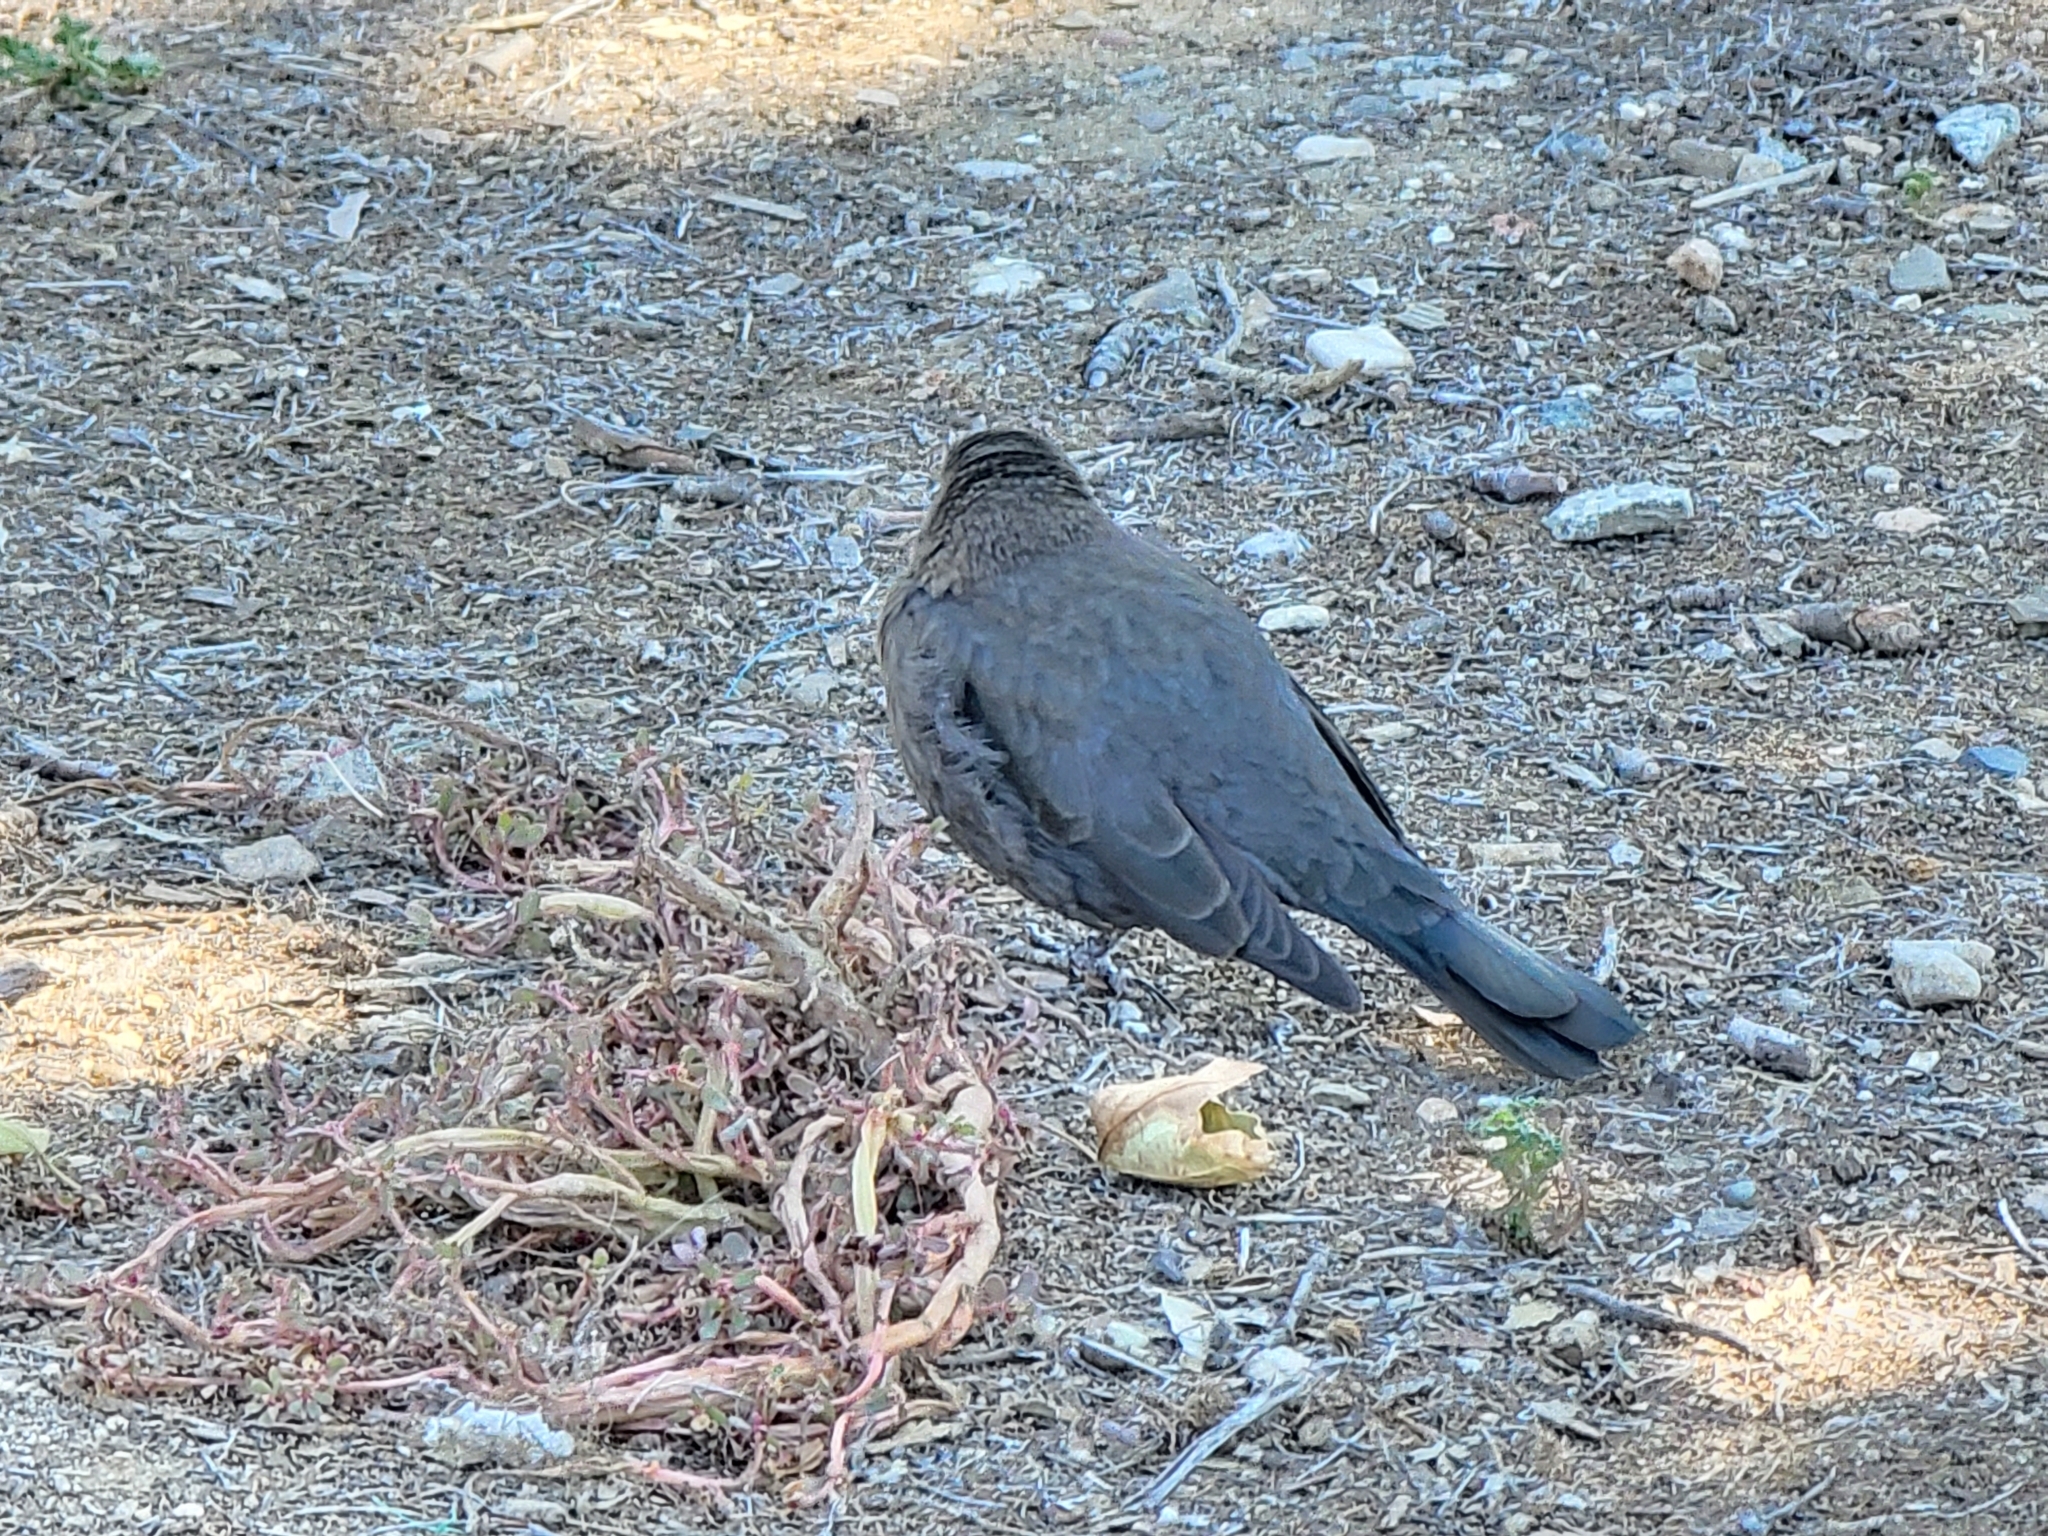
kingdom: Animalia
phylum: Chordata
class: Aves
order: Passeriformes
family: Icteridae
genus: Euphagus
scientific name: Euphagus cyanocephalus
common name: Brewer's blackbird
